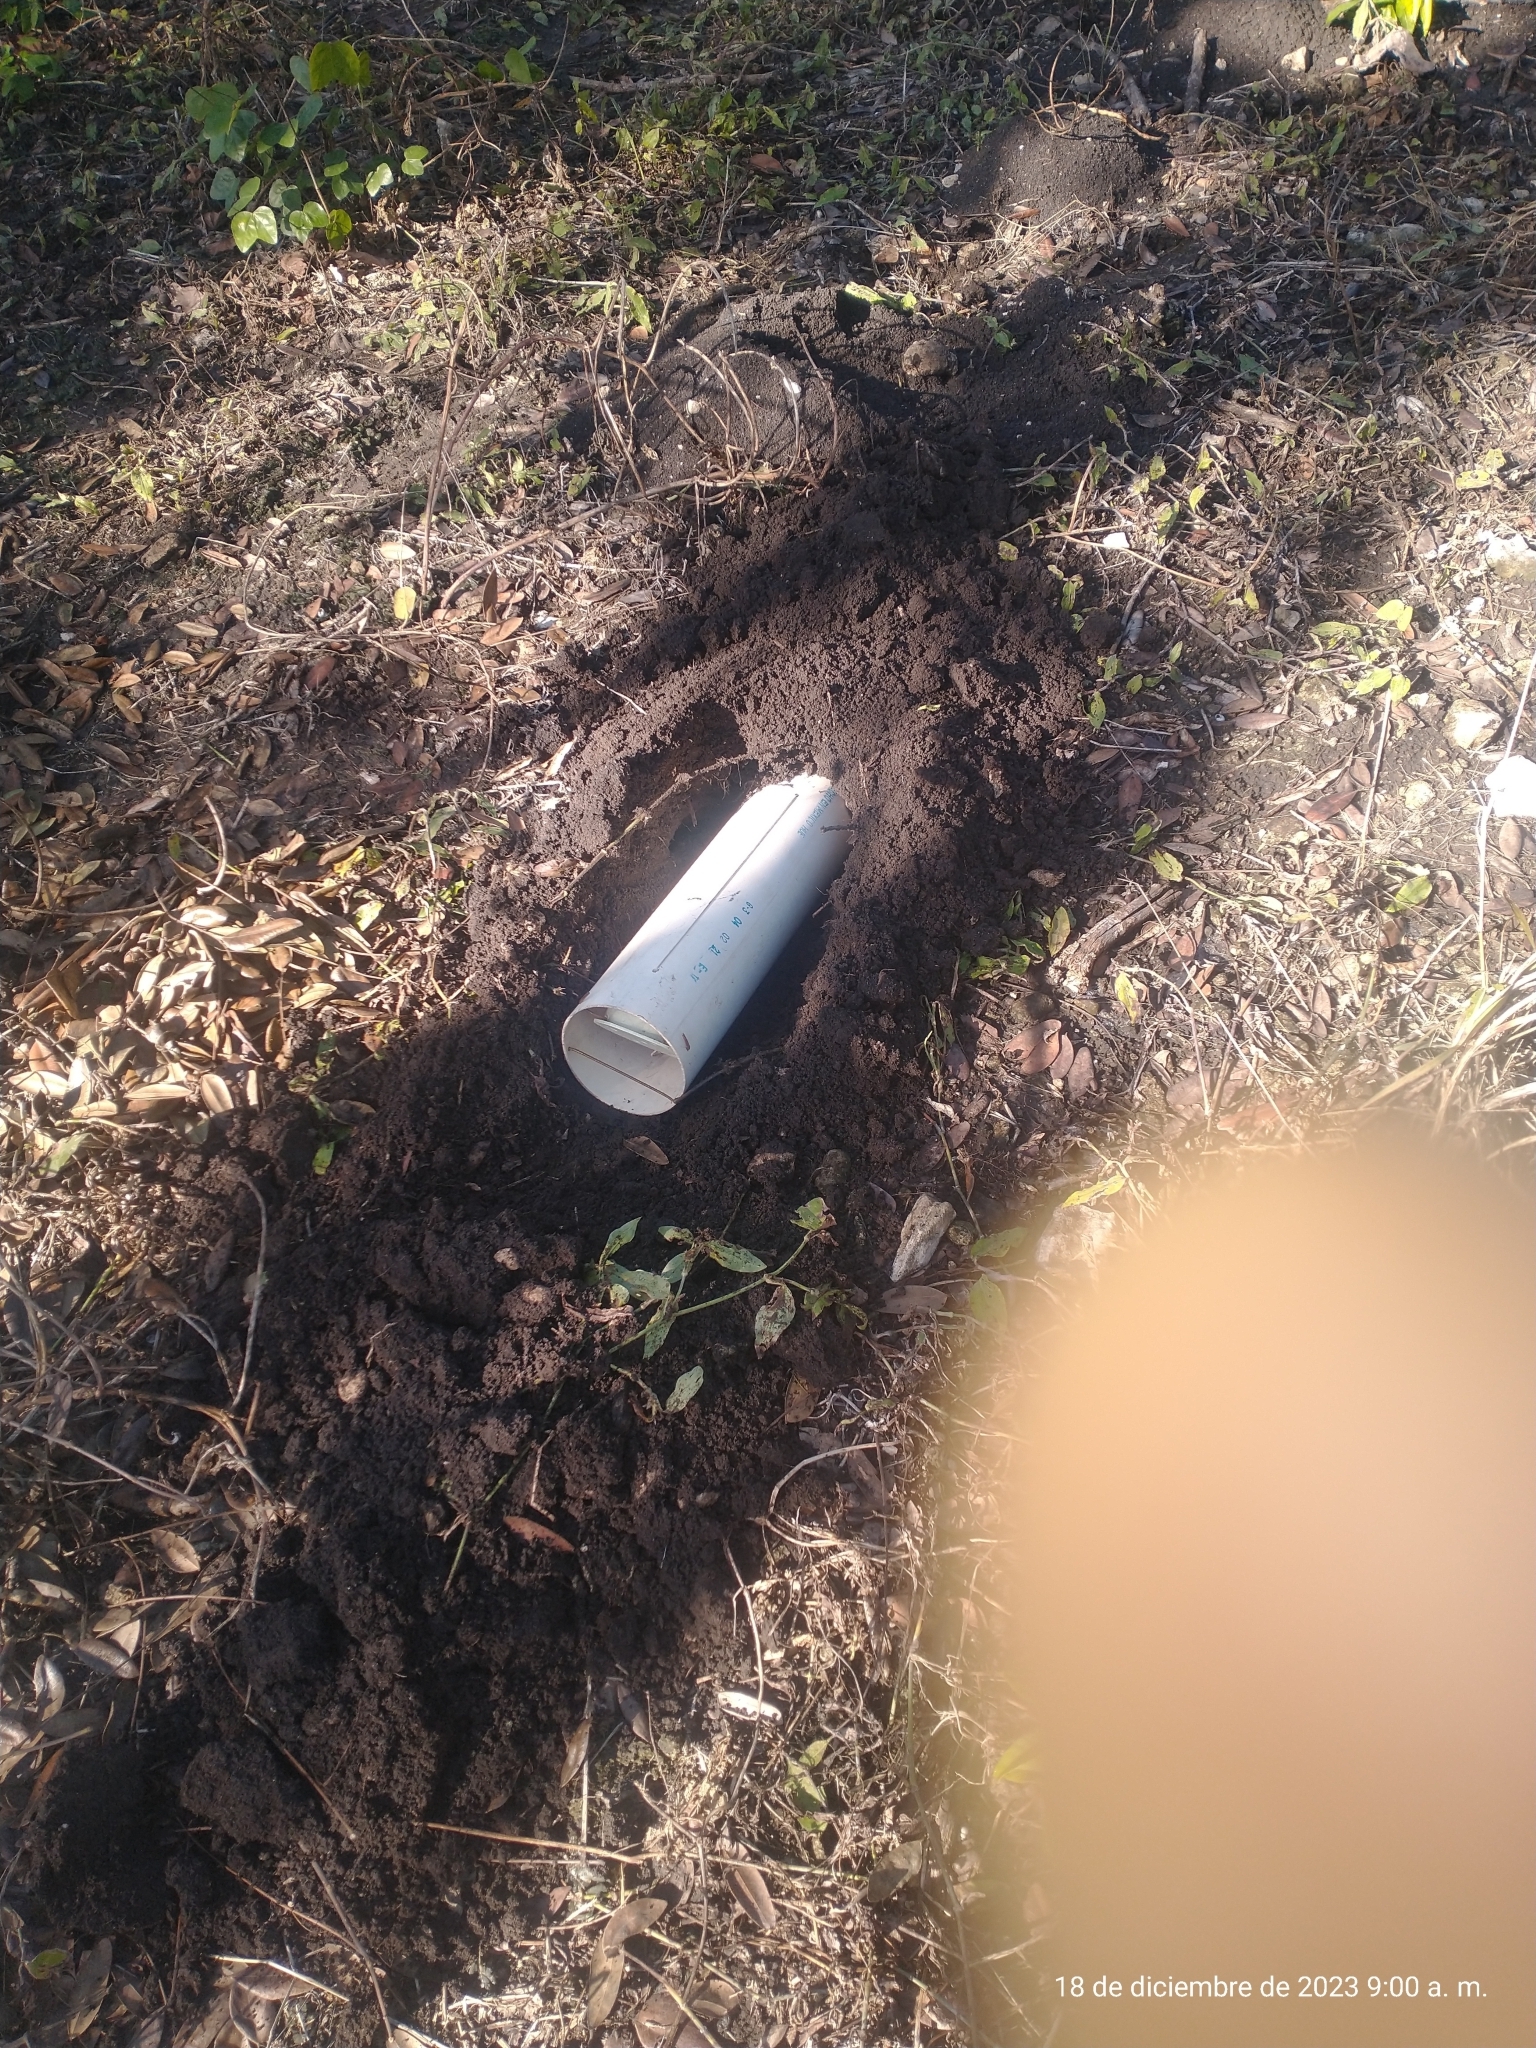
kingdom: Animalia
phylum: Chordata
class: Mammalia
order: Rodentia
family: Geomyidae
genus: Orthogeomys
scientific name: Orthogeomys hispidus
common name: Hispid pocket gopher
